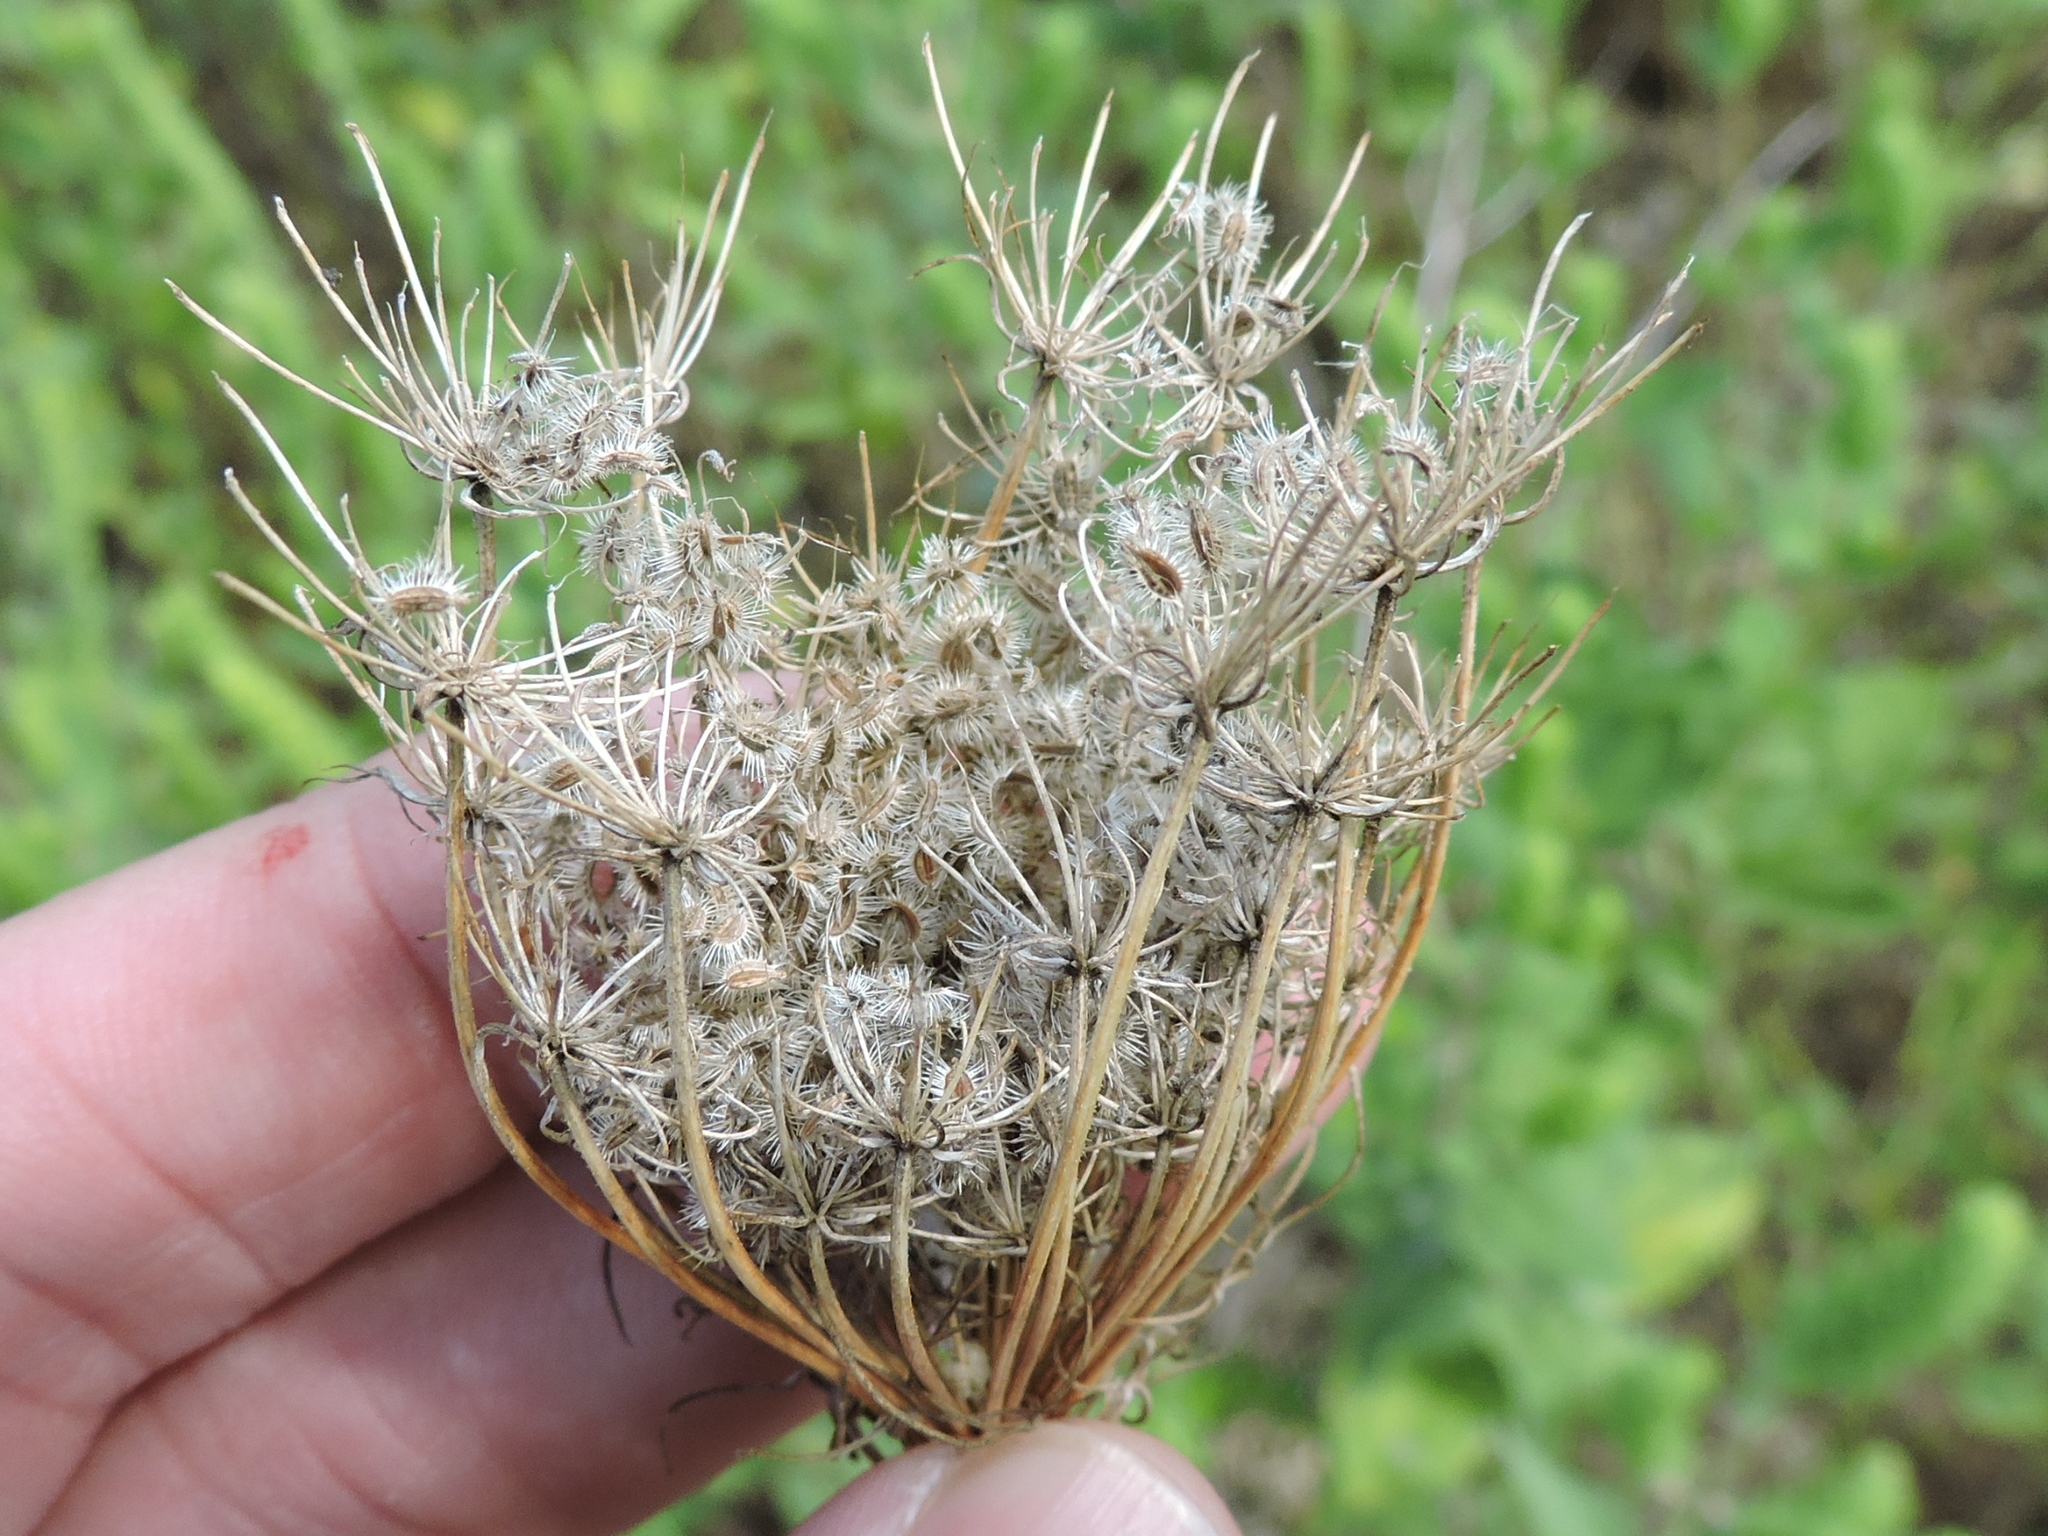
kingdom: Plantae
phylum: Tracheophyta
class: Magnoliopsida
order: Apiales
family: Apiaceae
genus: Daucus
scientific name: Daucus carota
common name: Wild carrot
